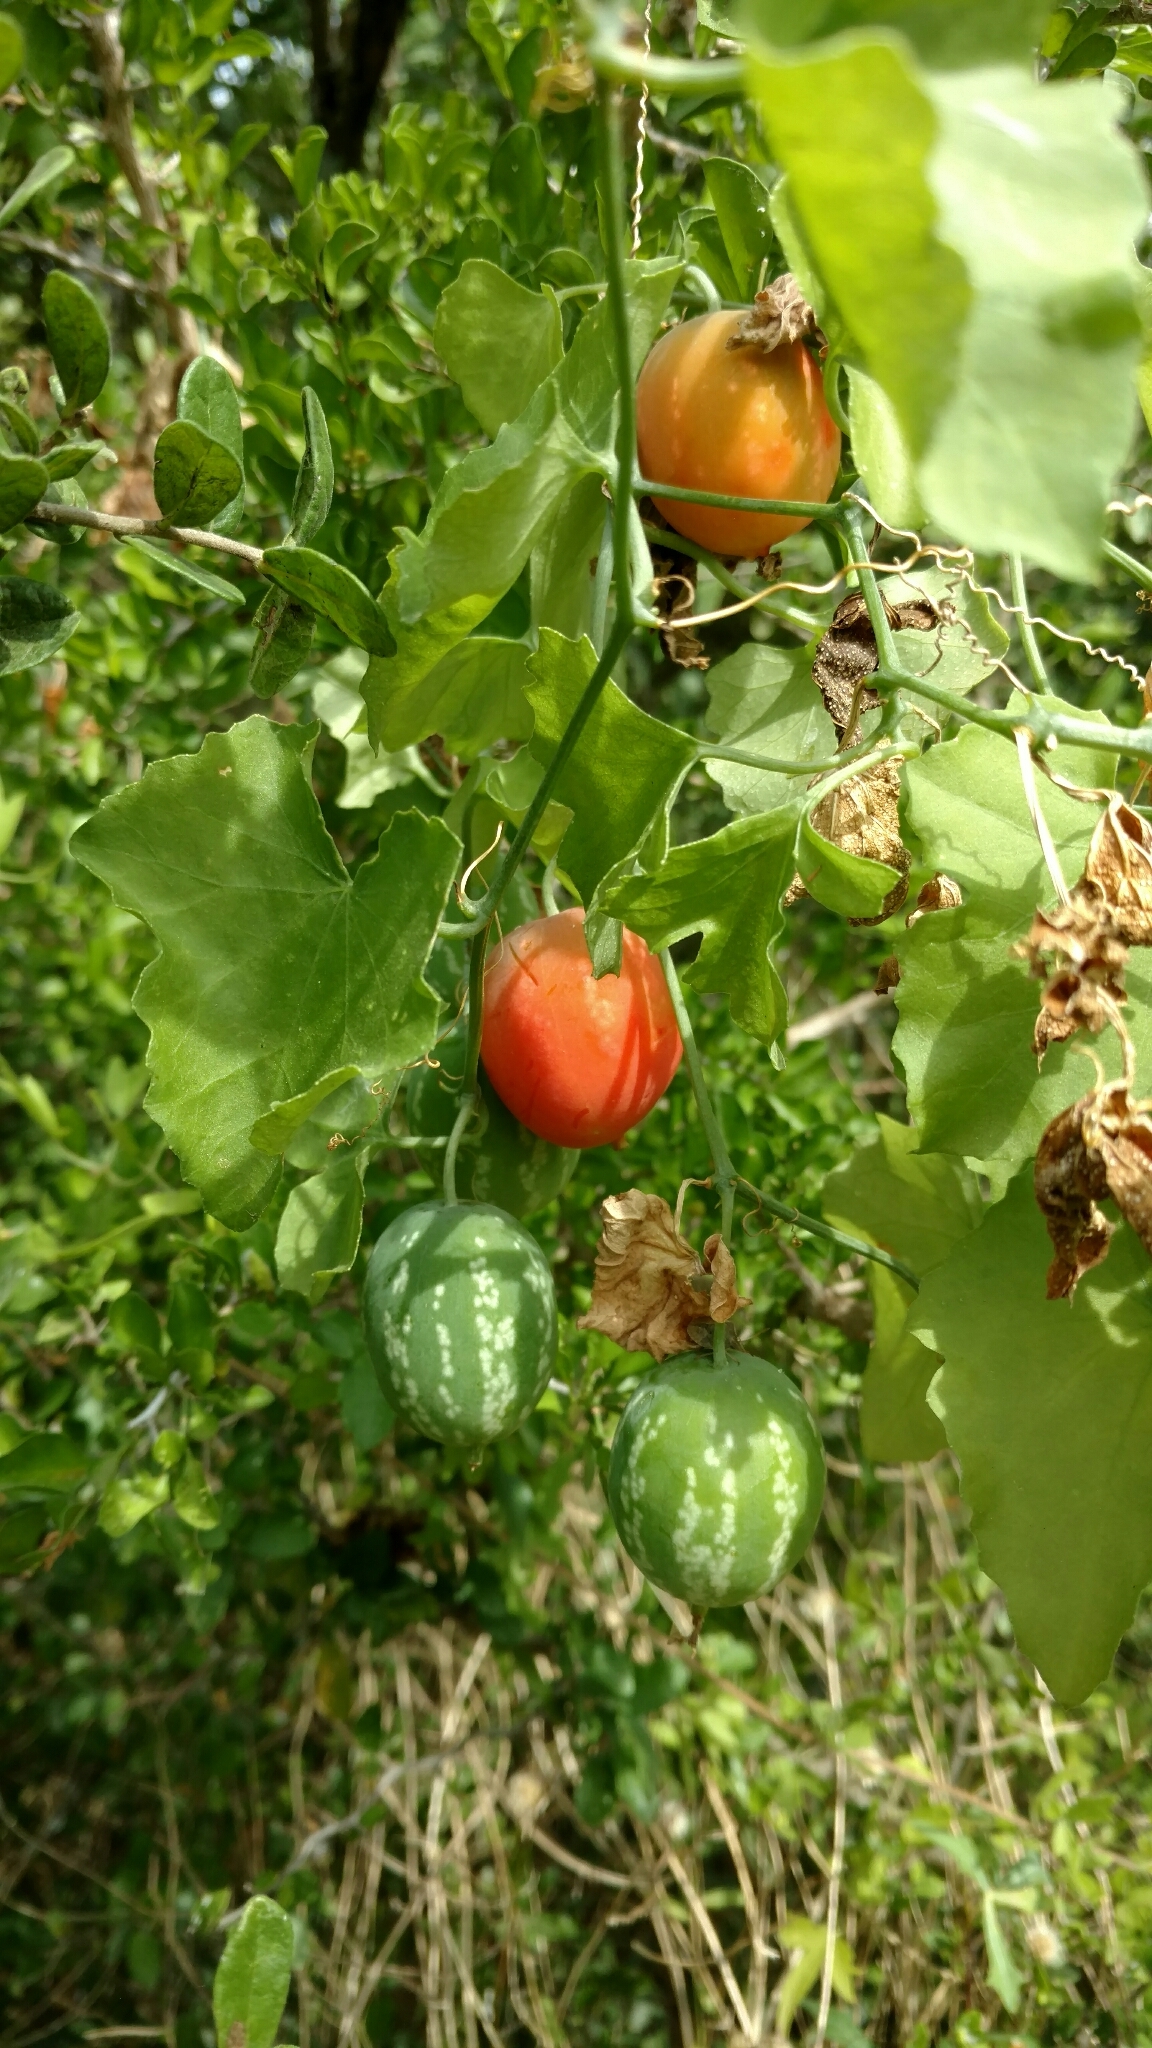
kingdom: Plantae
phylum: Tracheophyta
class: Magnoliopsida
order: Cucurbitales
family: Cucurbitaceae
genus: Ibervillea
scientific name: Ibervillea lindheimeri
